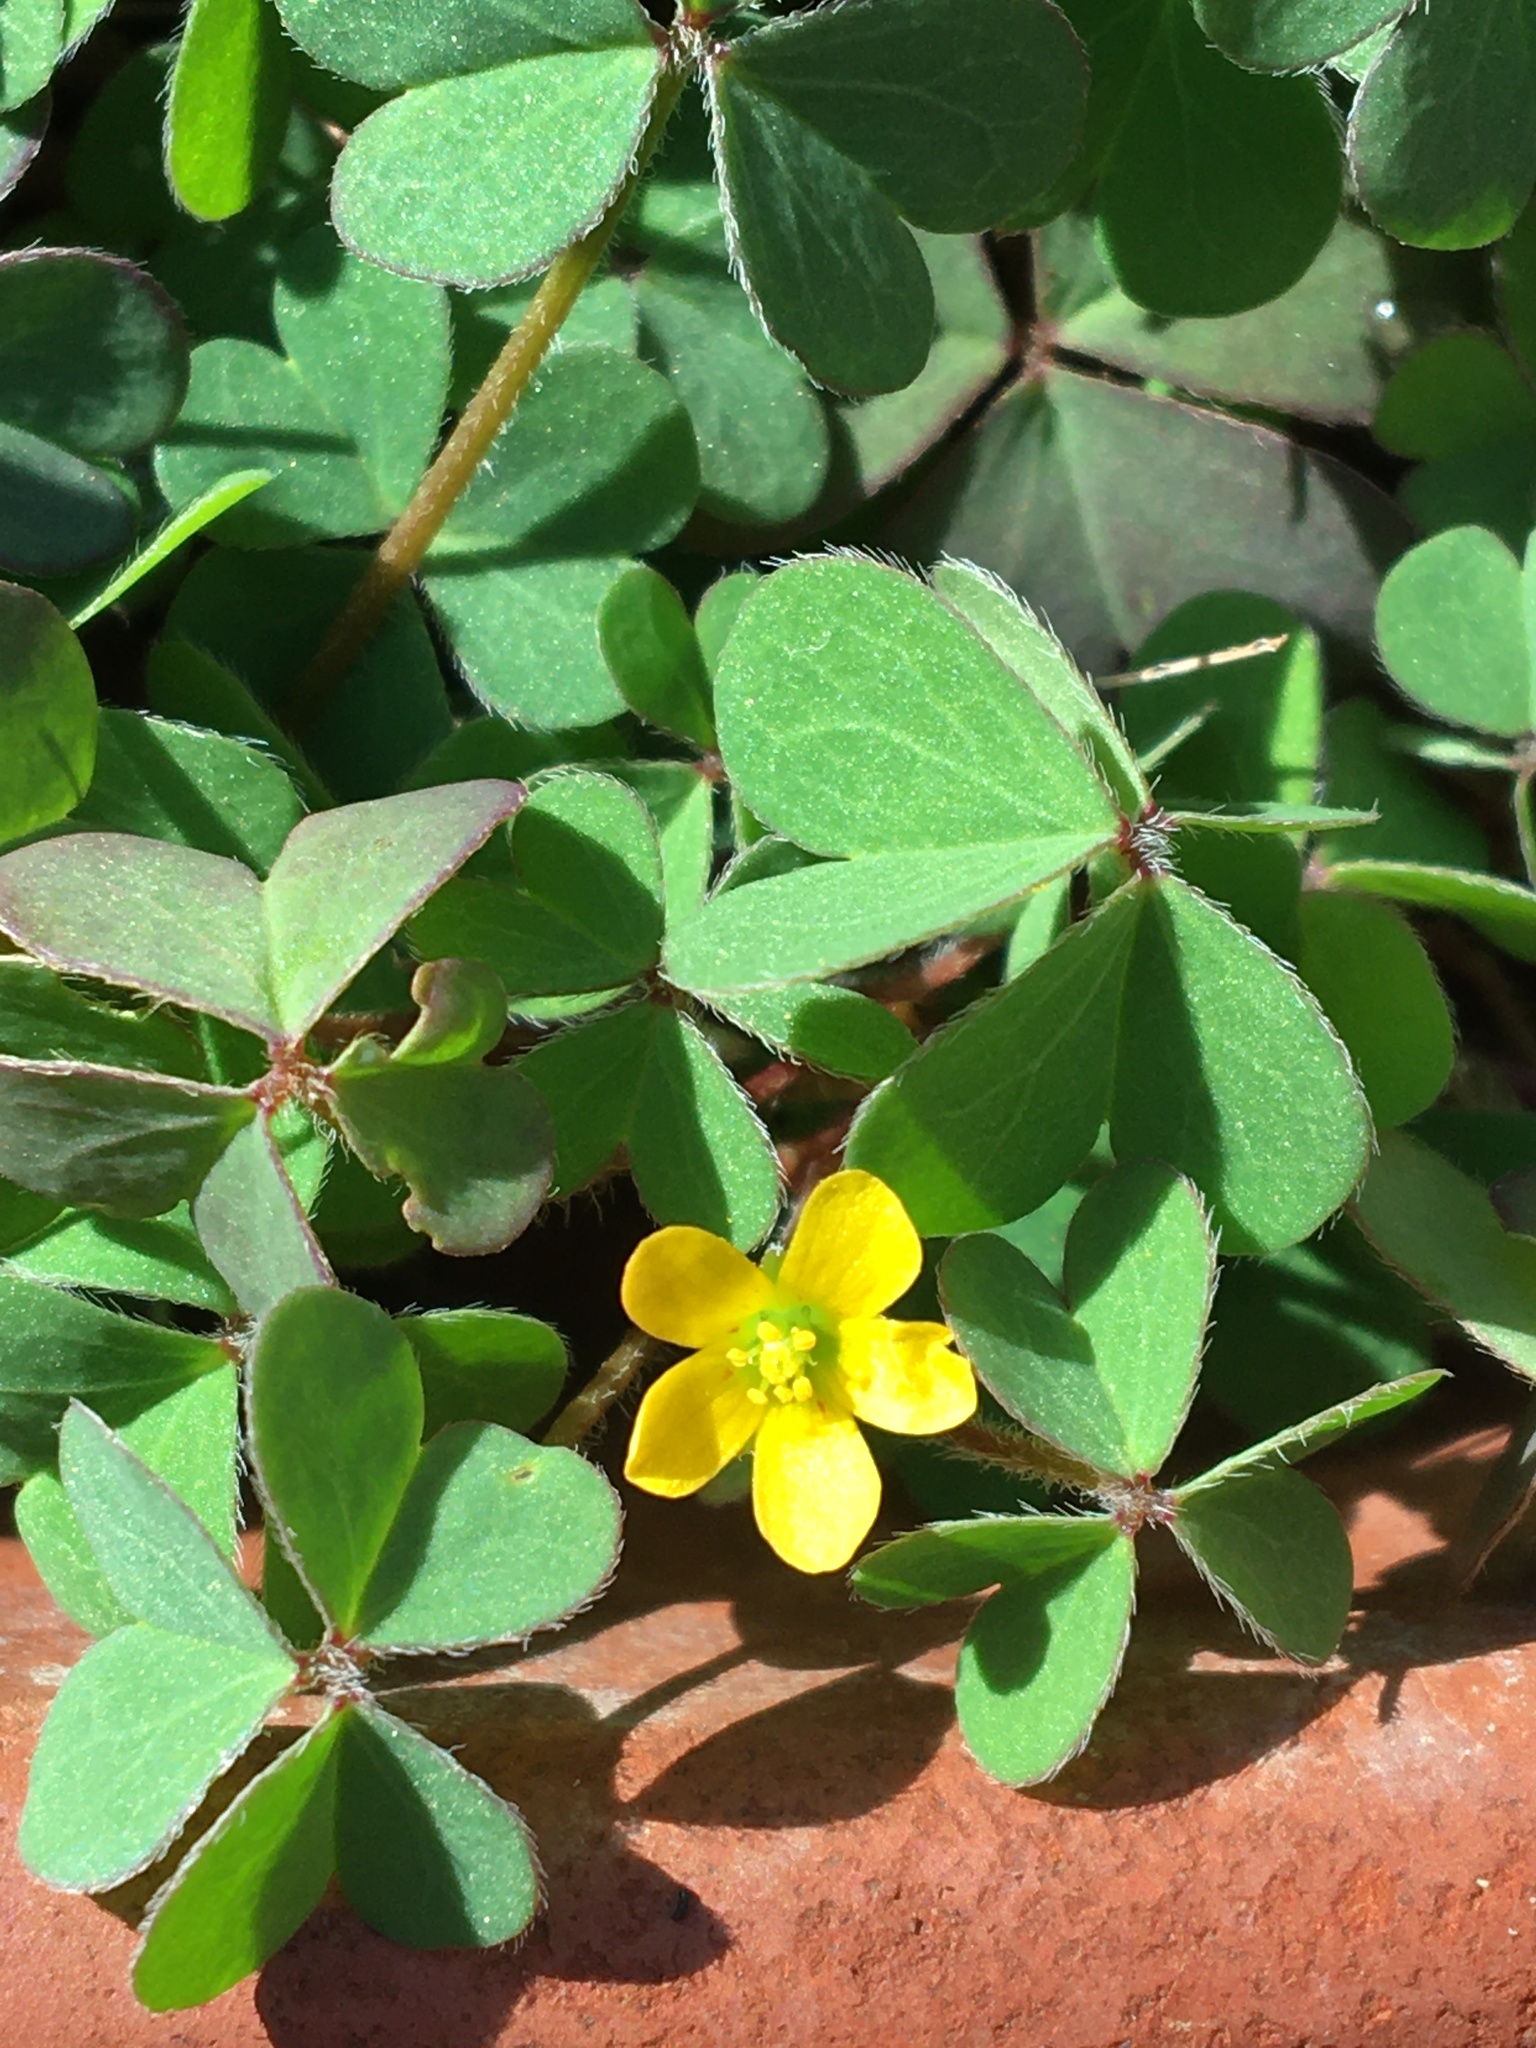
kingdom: Plantae
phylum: Tracheophyta
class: Magnoliopsida
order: Oxalidales
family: Oxalidaceae
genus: Oxalis
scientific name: Oxalis corniculata
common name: Procumbent yellow-sorrel
